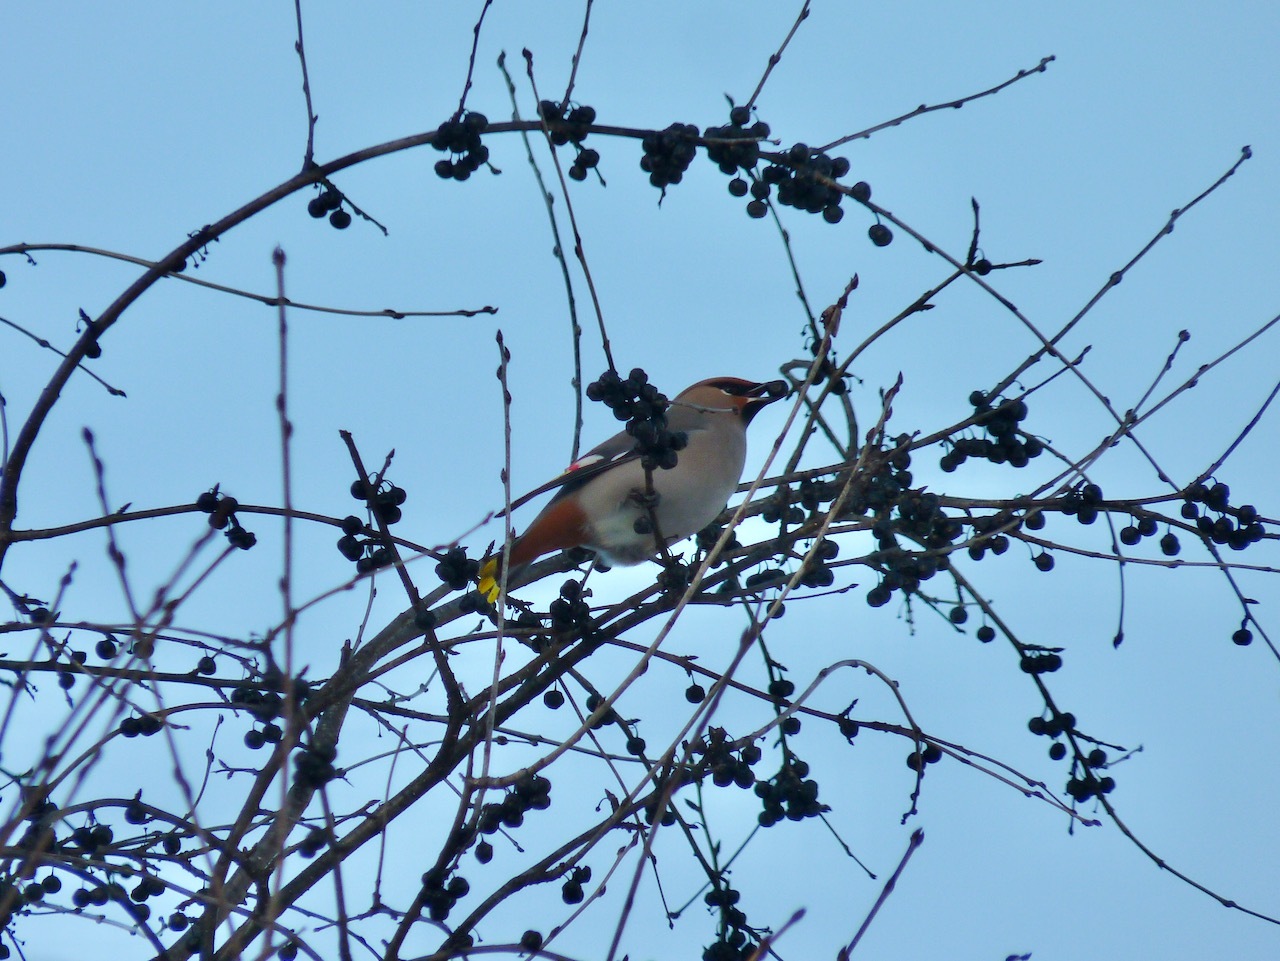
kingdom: Animalia
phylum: Chordata
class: Aves
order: Passeriformes
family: Bombycillidae
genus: Bombycilla
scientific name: Bombycilla garrulus
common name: Bohemian waxwing
